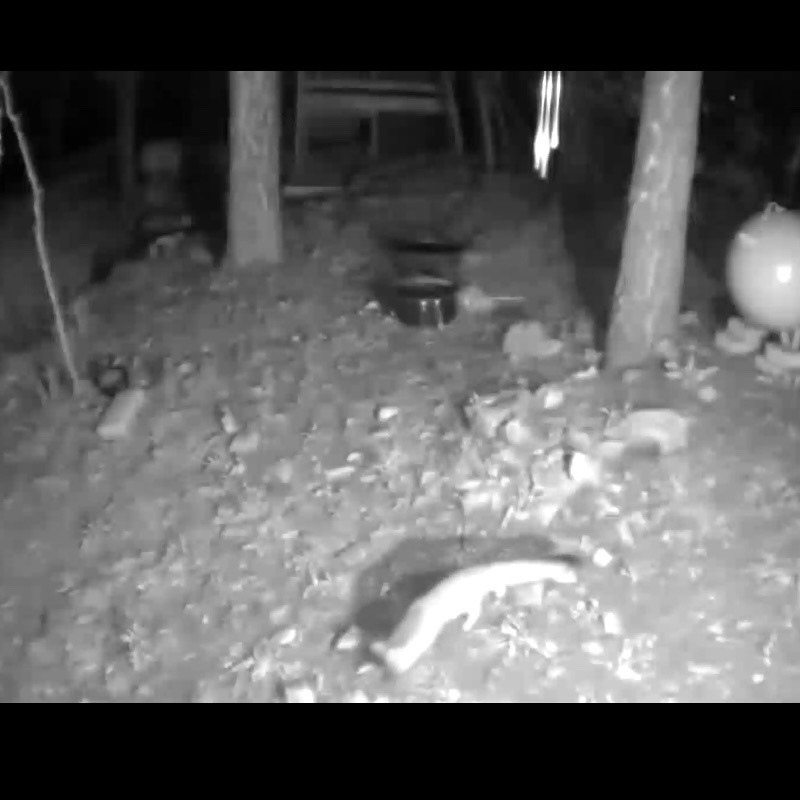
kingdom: Animalia
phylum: Chordata
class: Mammalia
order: Carnivora
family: Canidae
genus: Urocyon
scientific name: Urocyon cinereoargenteus
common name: Gray fox
